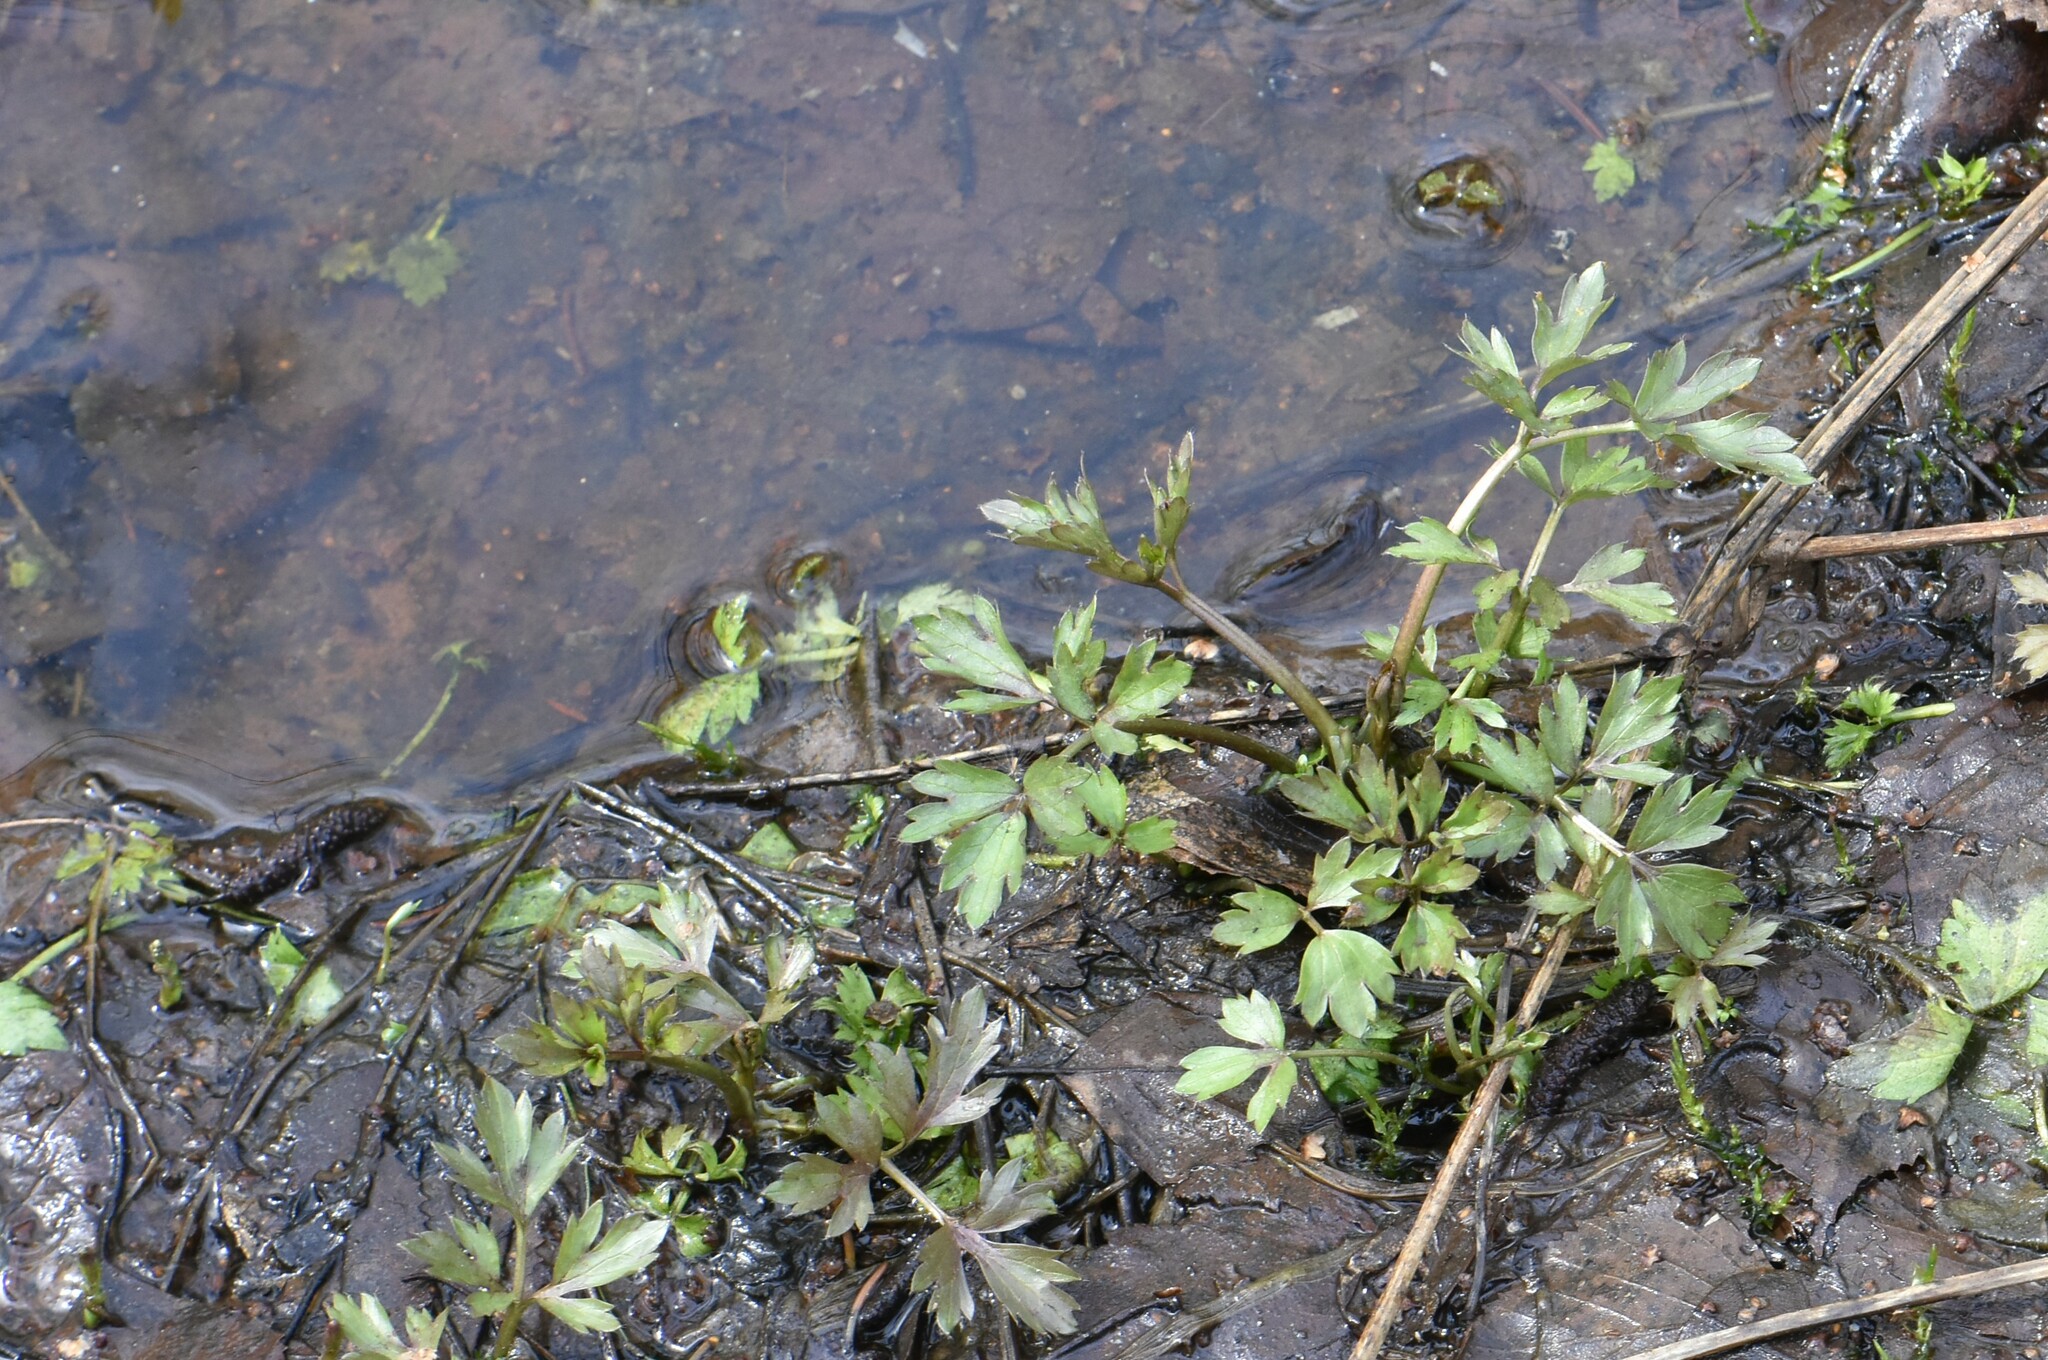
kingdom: Plantae
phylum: Tracheophyta
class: Magnoliopsida
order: Ranunculales
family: Ranunculaceae
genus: Ranunculus
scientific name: Ranunculus repens
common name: Creeping buttercup
